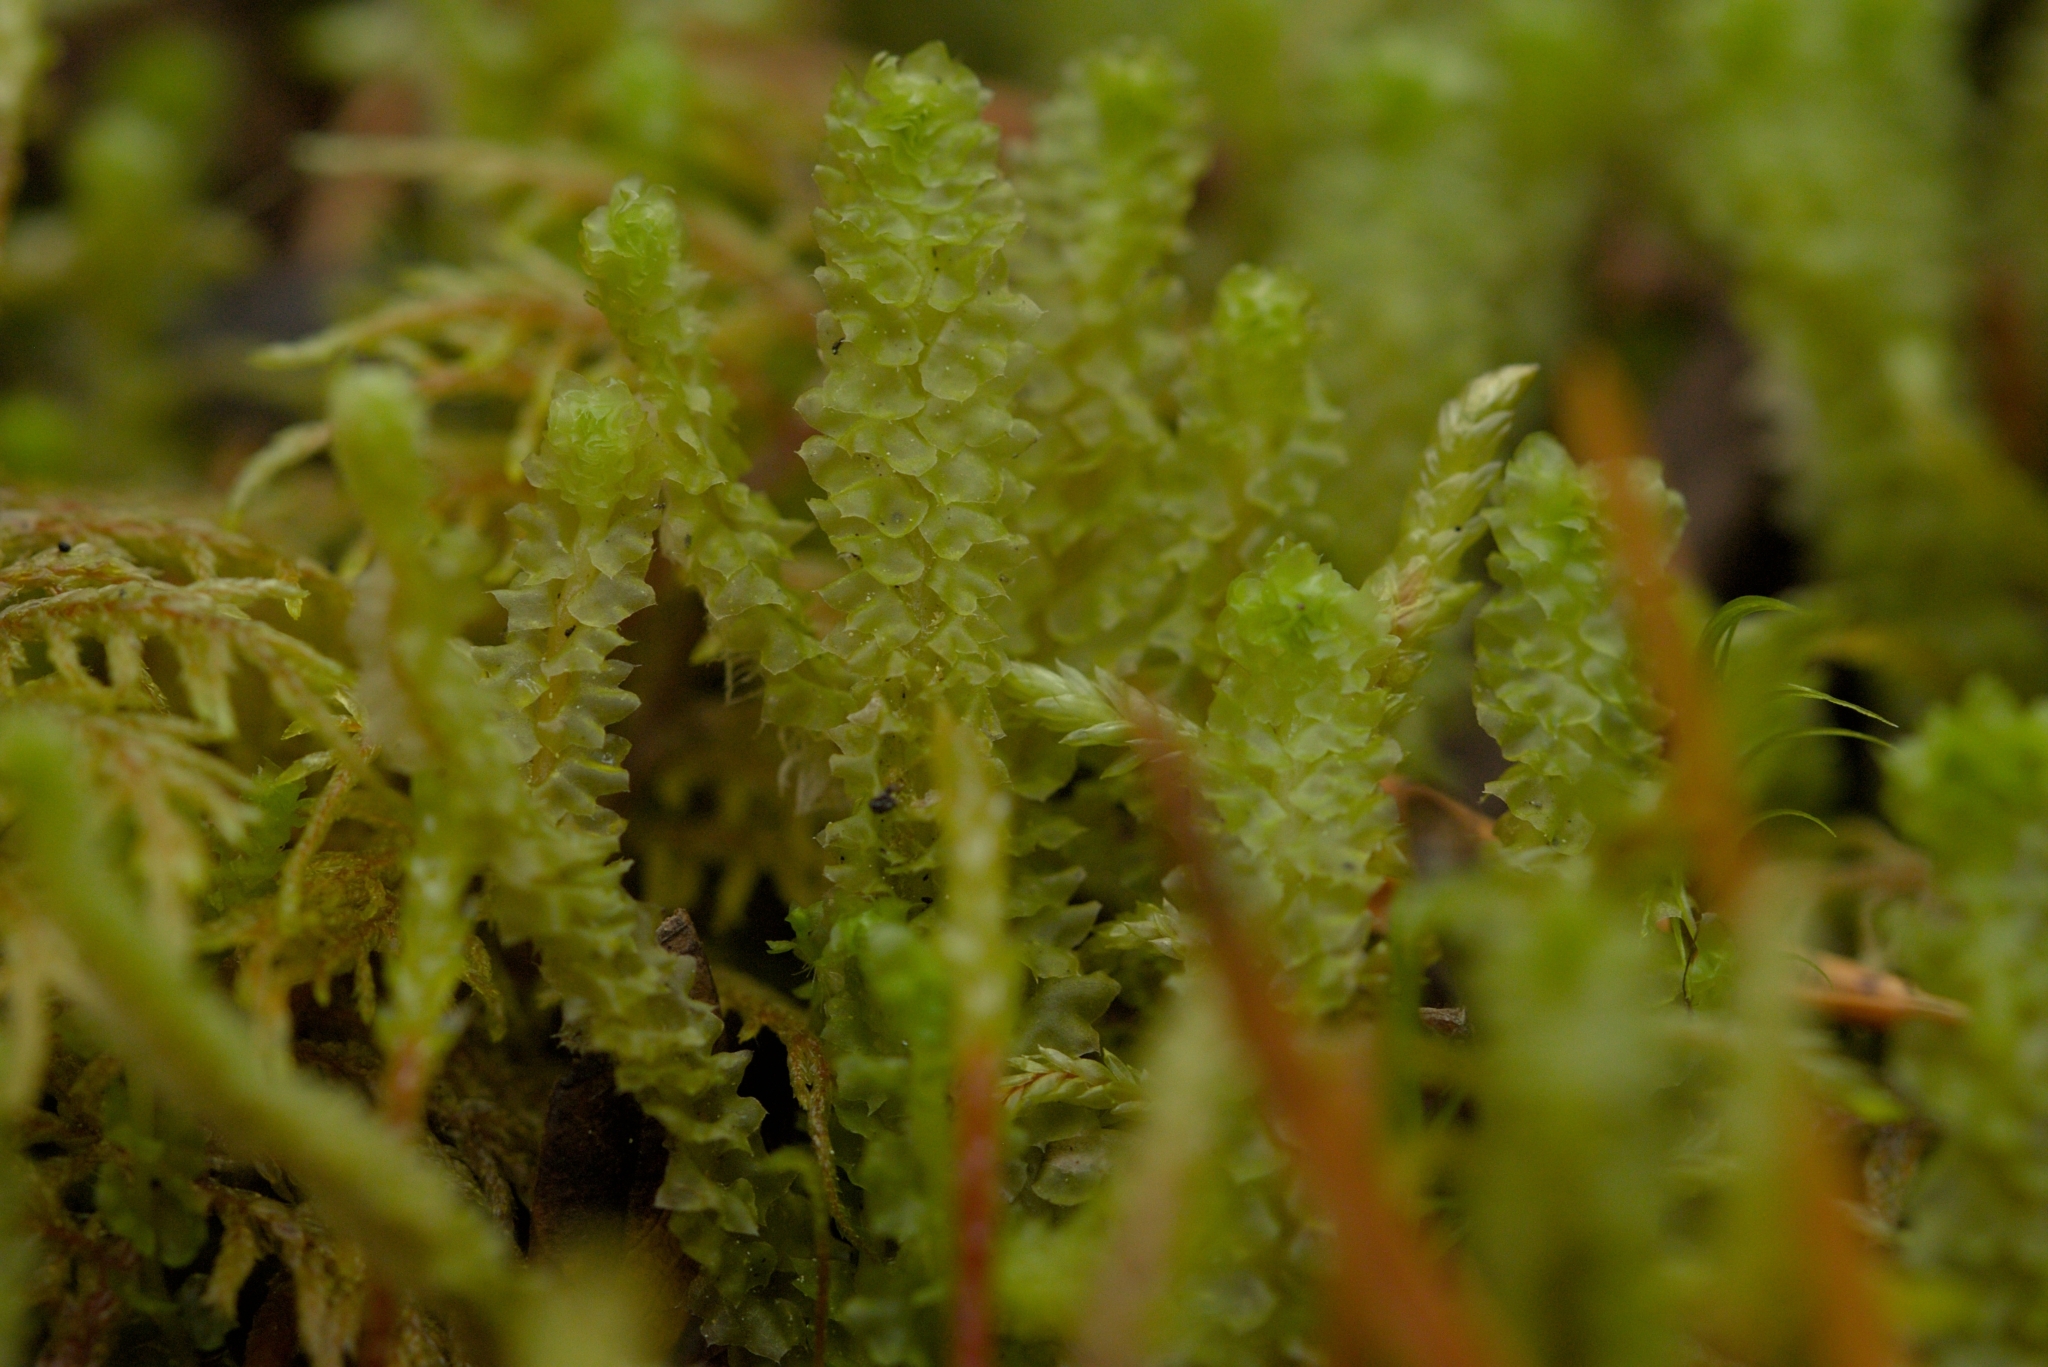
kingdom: Plantae
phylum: Marchantiophyta
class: Jungermanniopsida
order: Jungermanniales
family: Anastrophyllaceae
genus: Barbilophozia
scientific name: Barbilophozia lycopodioides
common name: Greater pawwort
